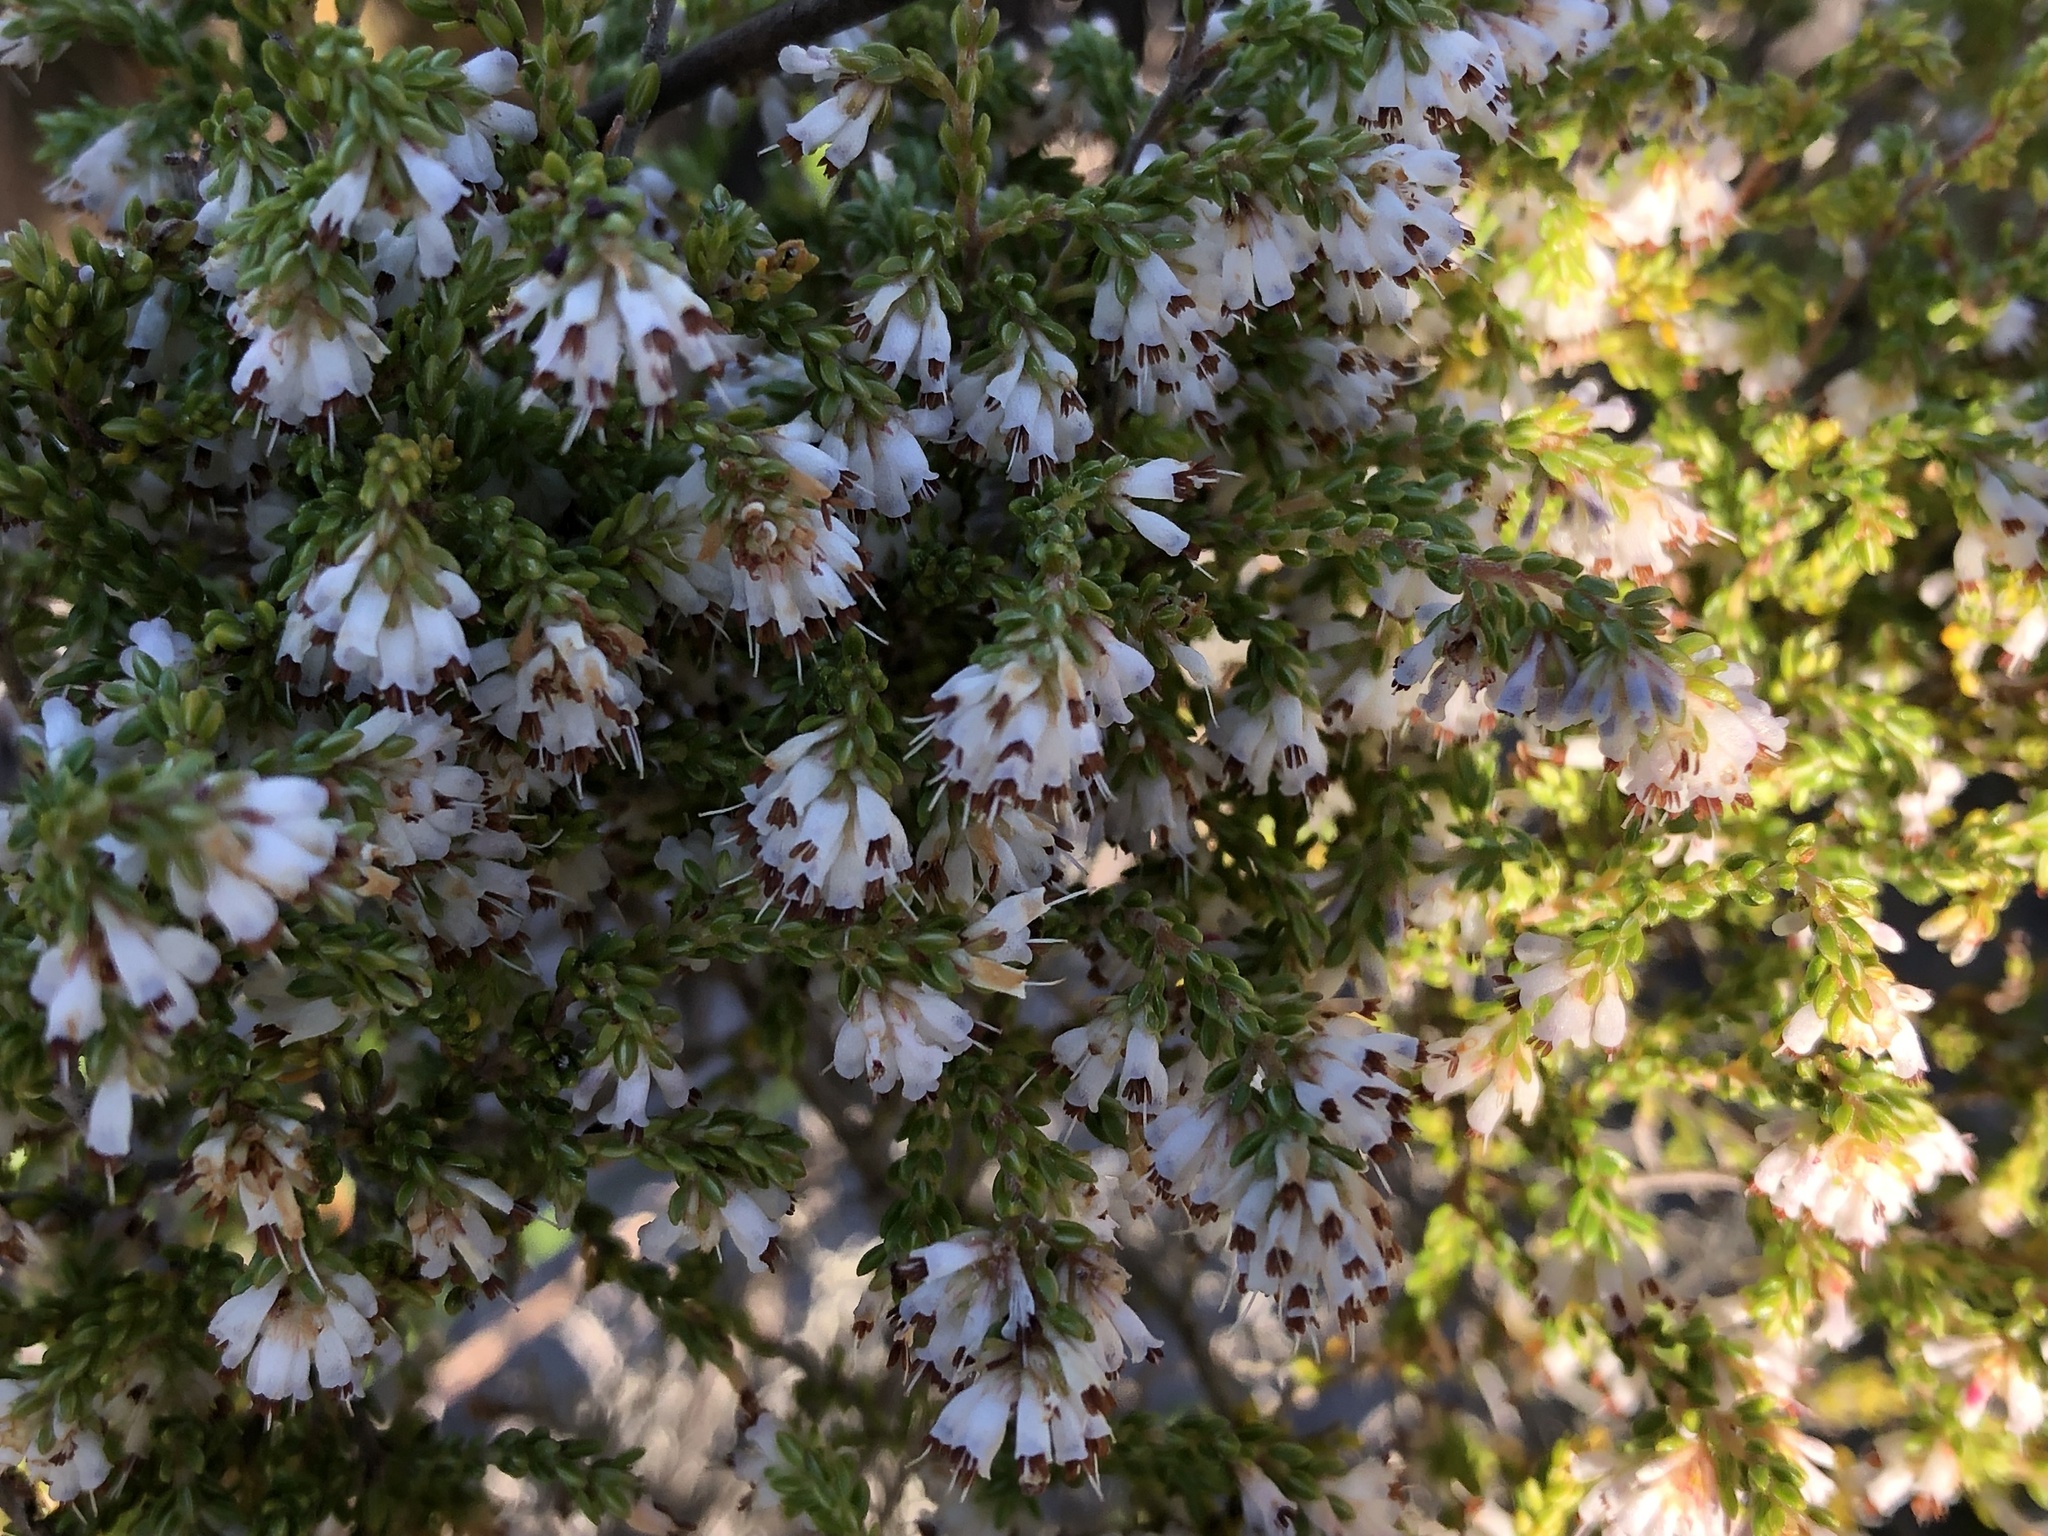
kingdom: Plantae
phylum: Tracheophyta
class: Magnoliopsida
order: Ericales
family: Ericaceae
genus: Erica
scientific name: Erica labialis
